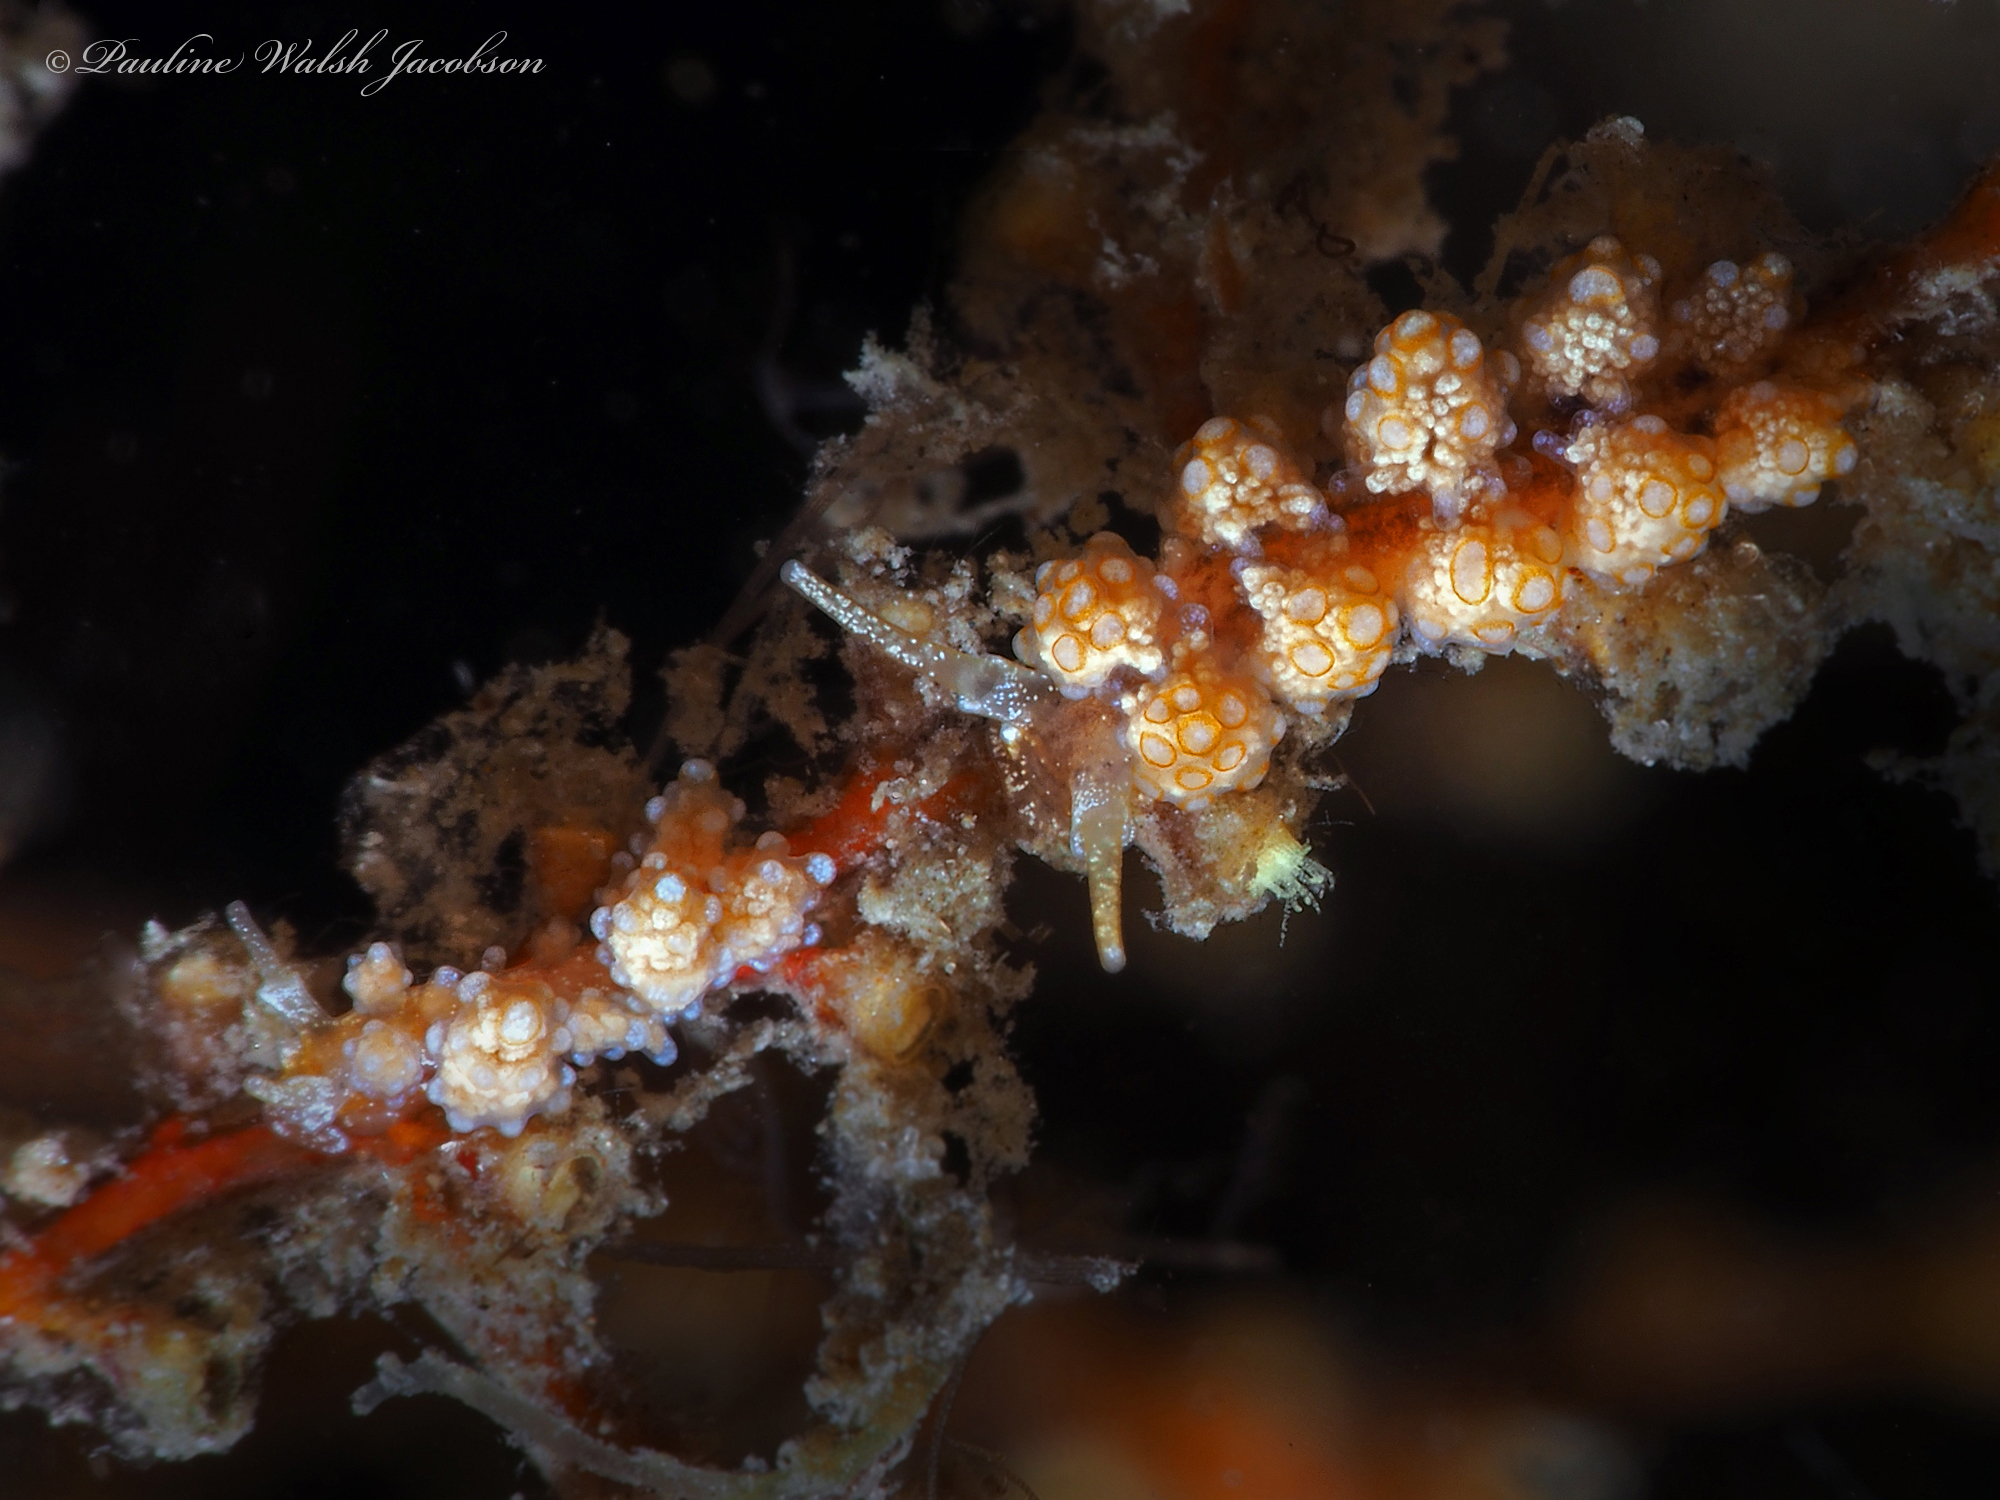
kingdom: Animalia
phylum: Mollusca
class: Gastropoda
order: Nudibranchia
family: Dotidae
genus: Doto
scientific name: Doto torrelavega
